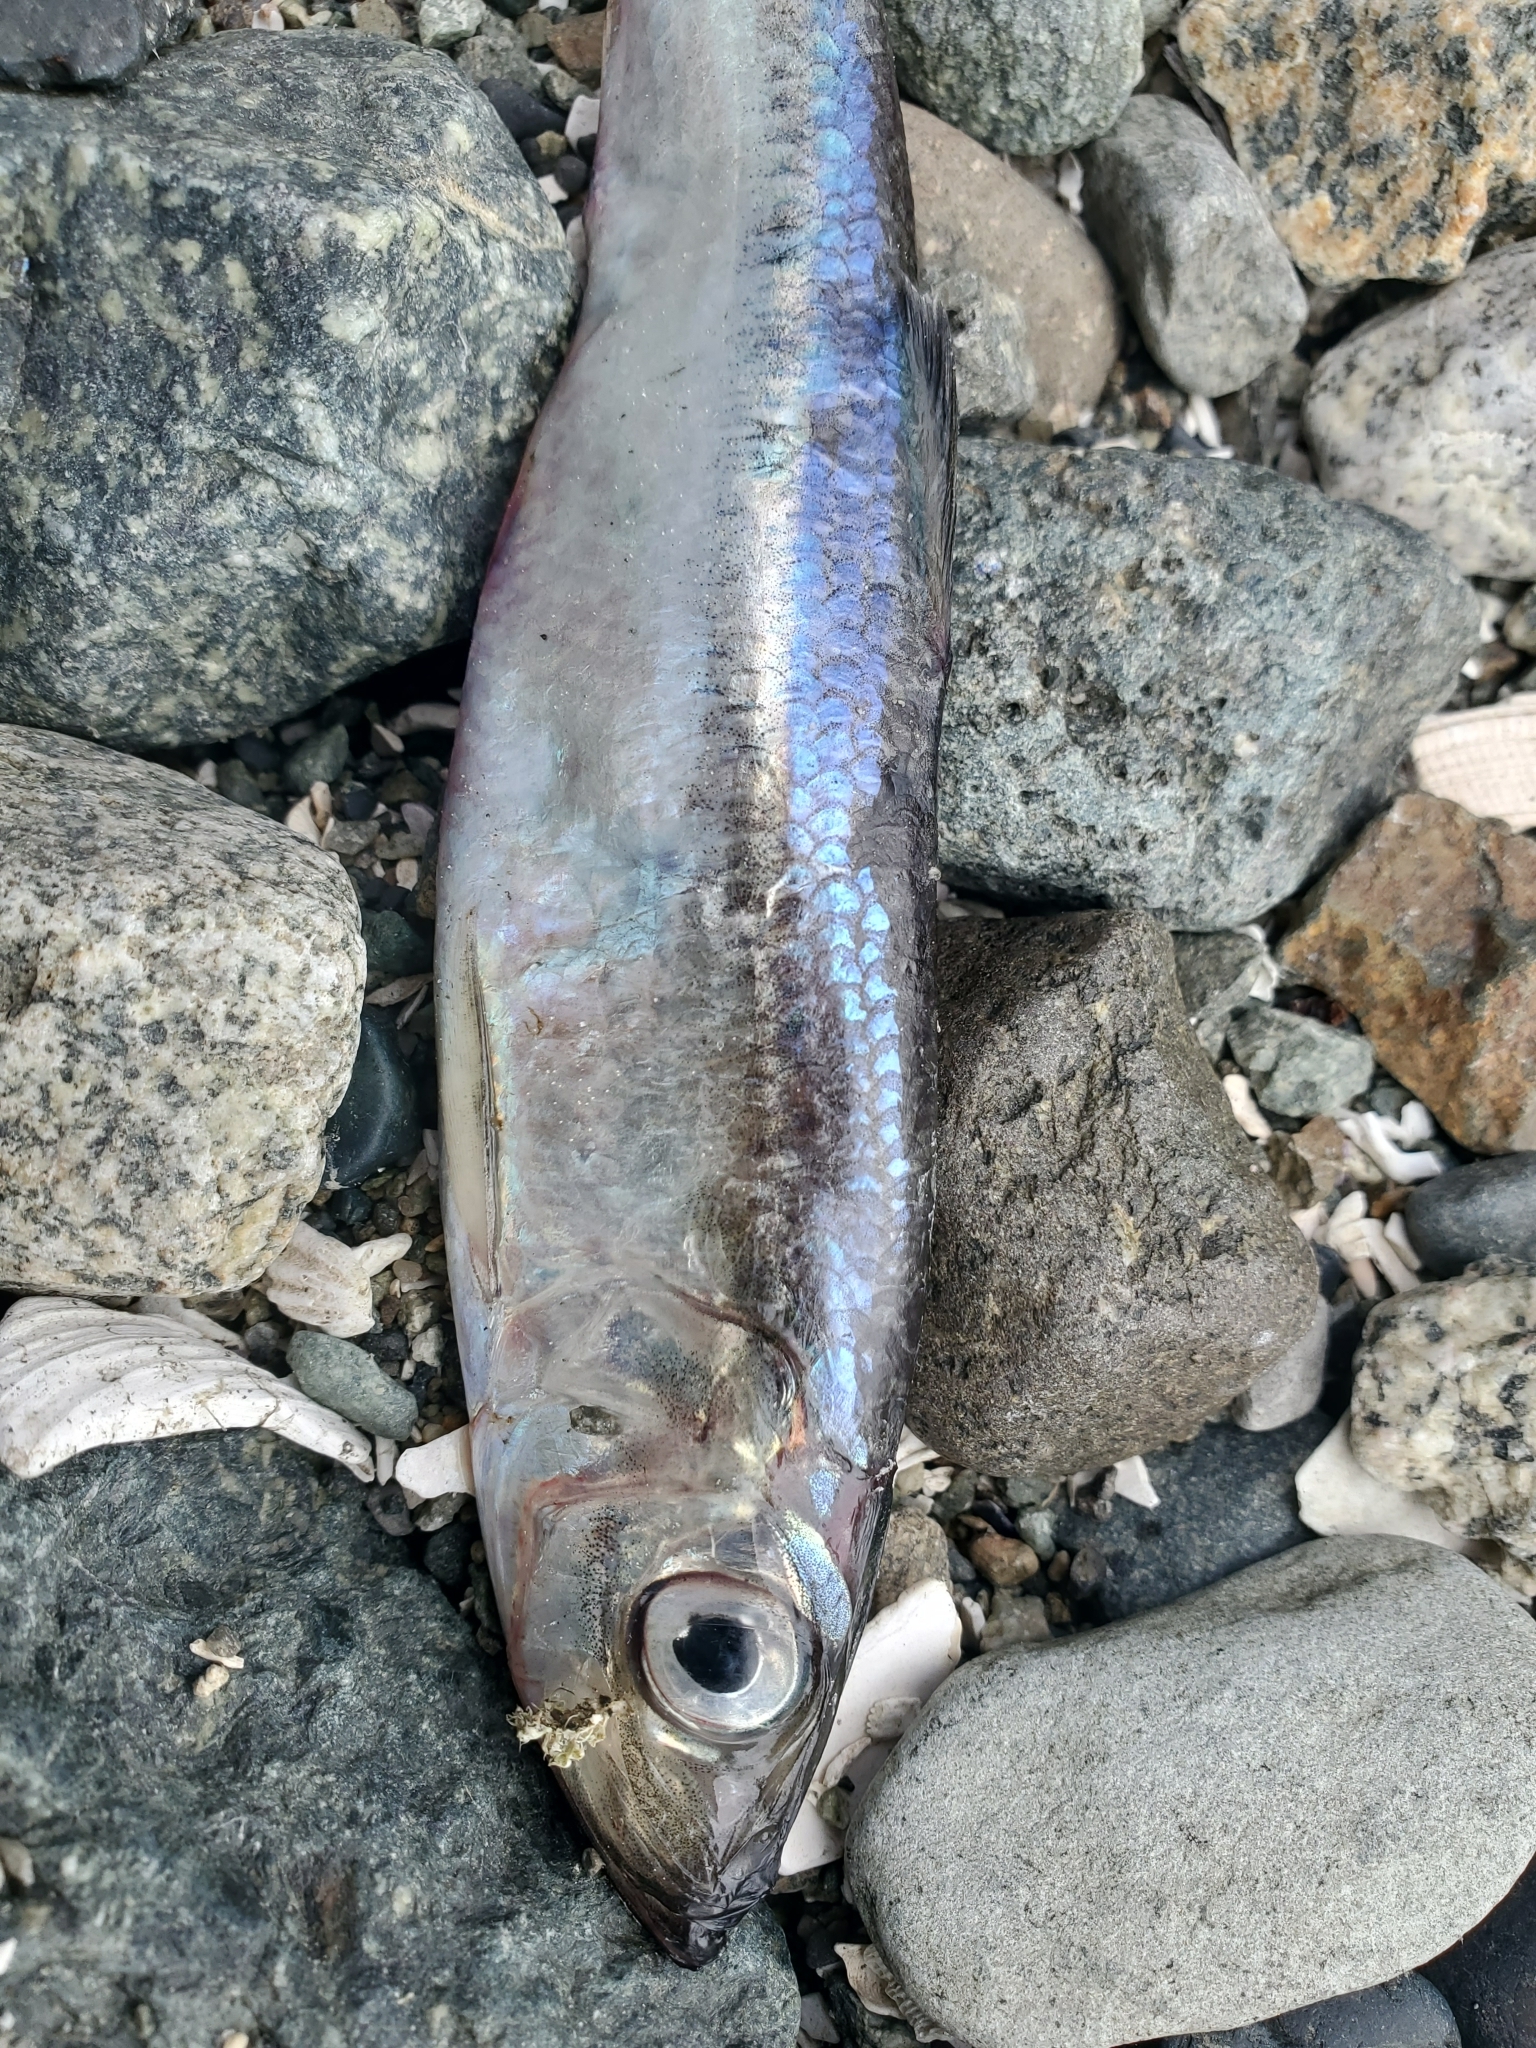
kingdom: Animalia
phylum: Chordata
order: Clupeiformes
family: Clupeidae
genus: Clupea
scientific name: Clupea pallasii
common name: Pacific herring
